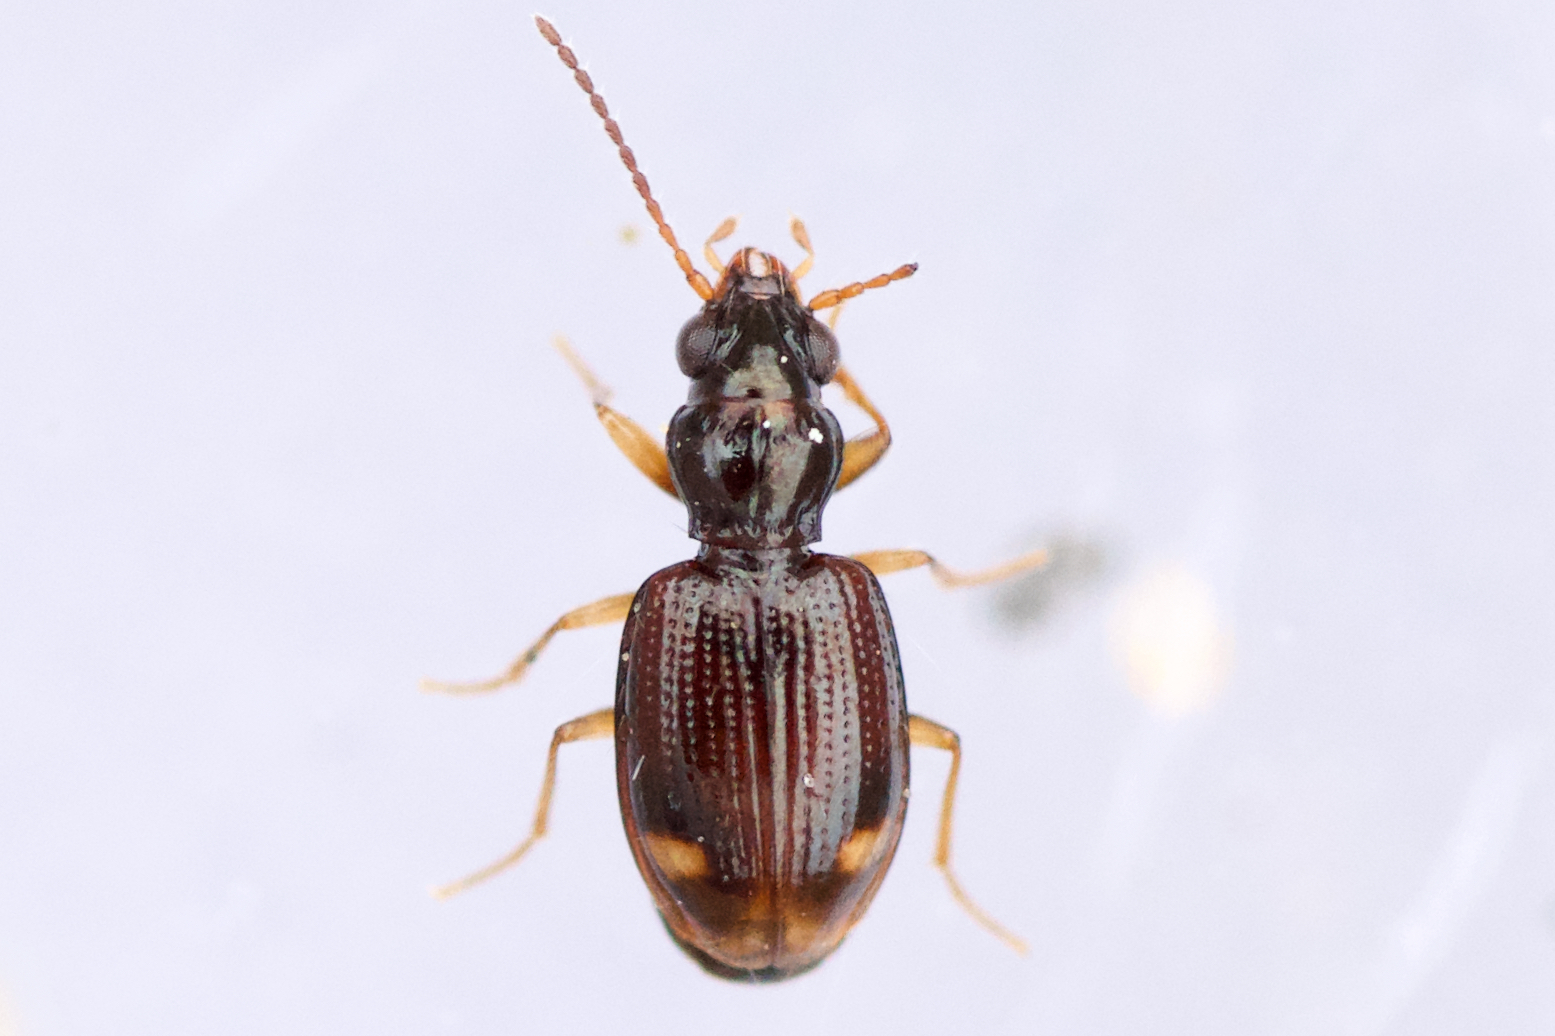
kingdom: Animalia
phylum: Arthropoda
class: Insecta
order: Coleoptera
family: Carabidae
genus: Bembidion
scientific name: Bembidion frontale
